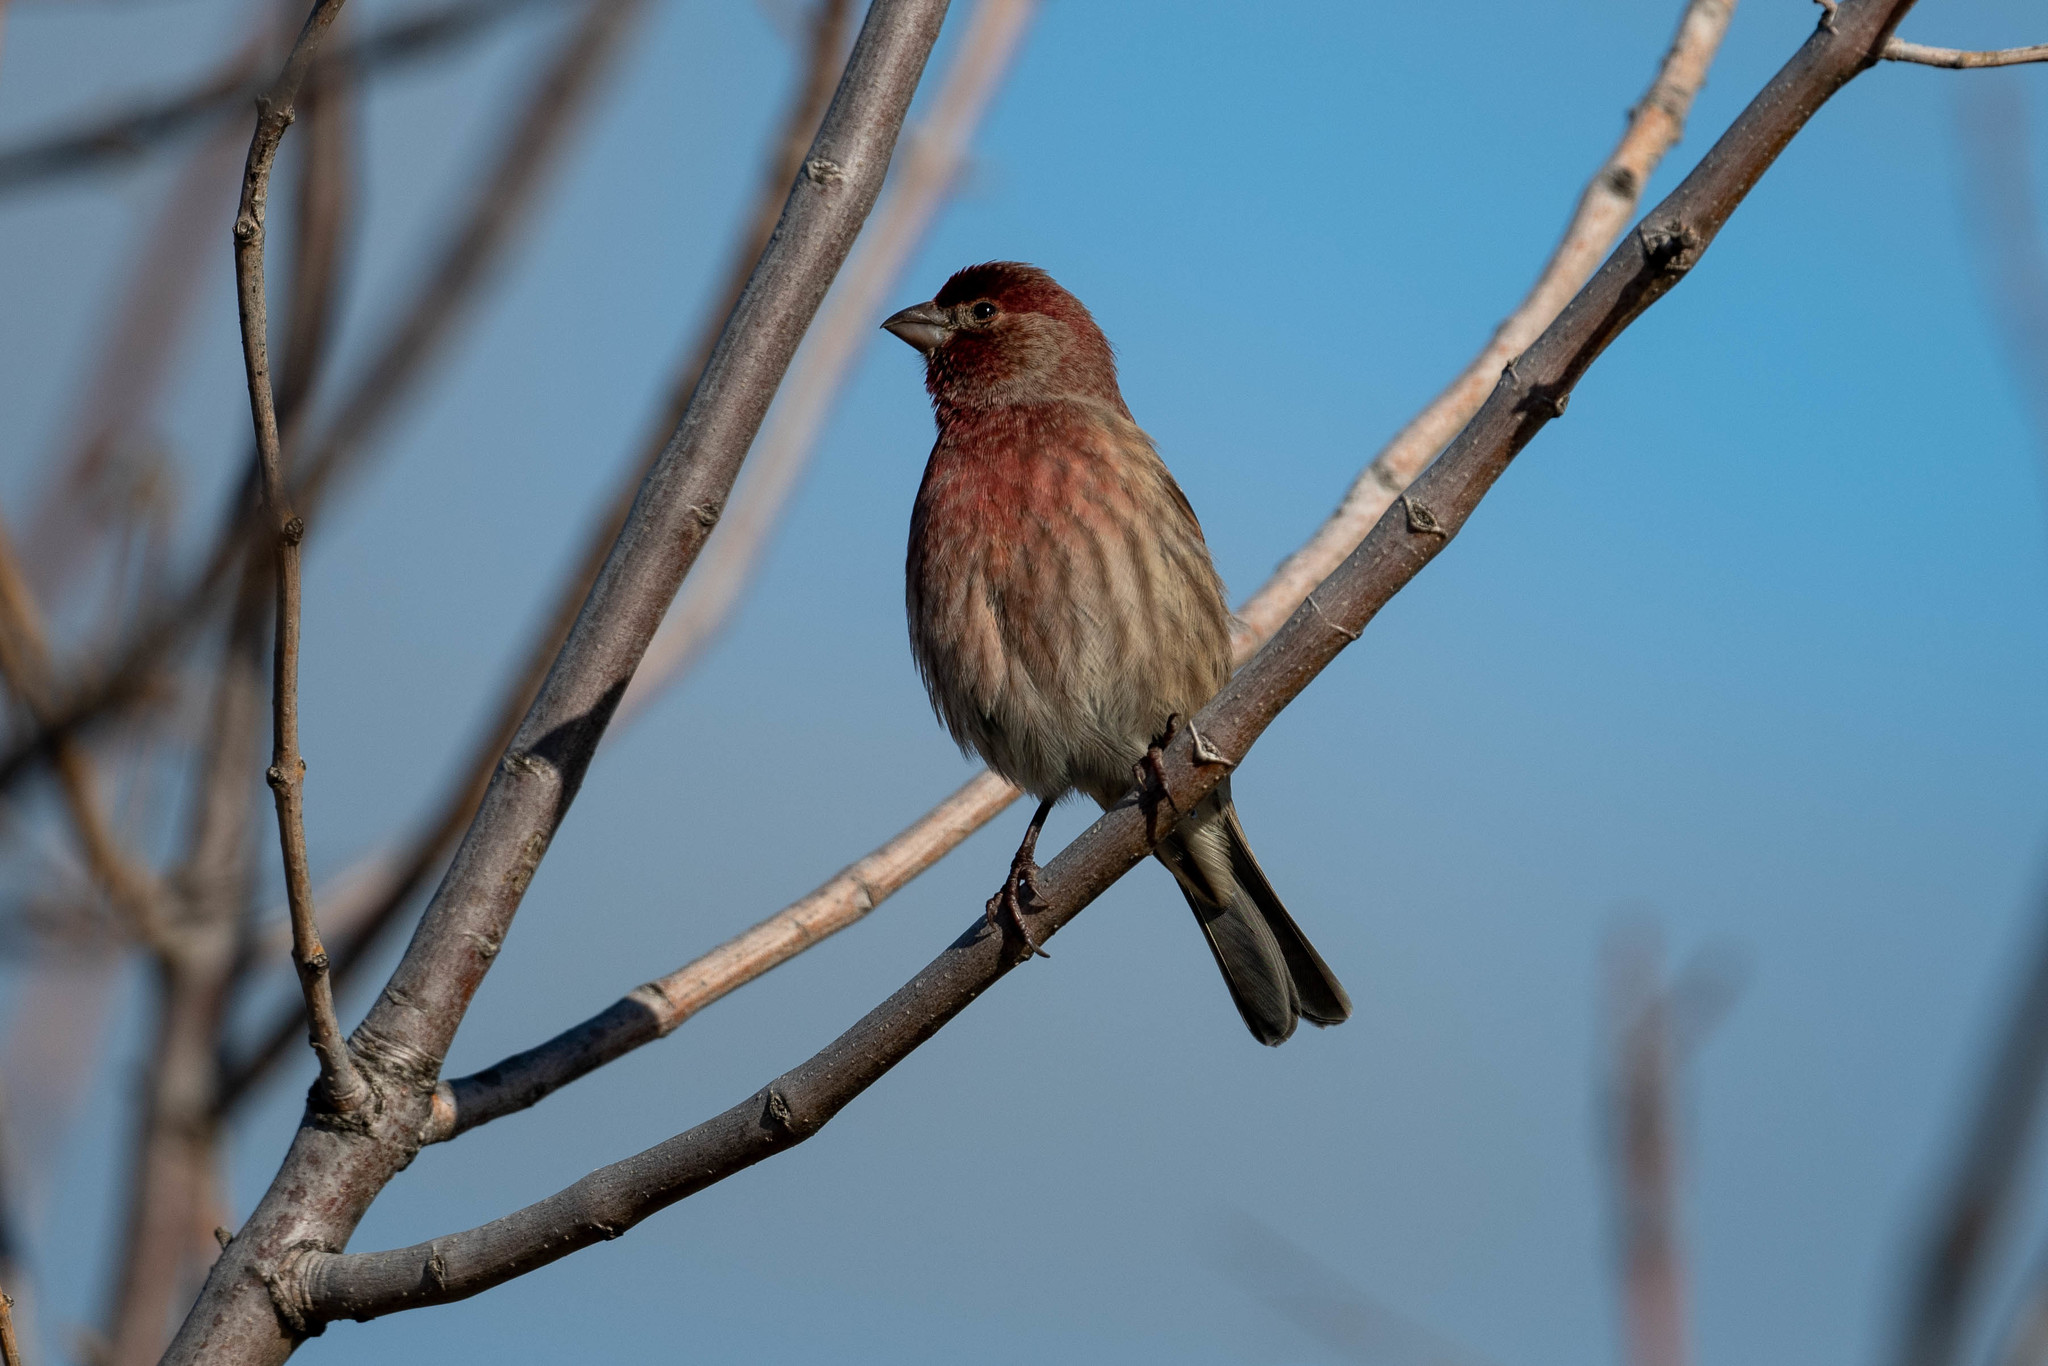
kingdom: Animalia
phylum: Chordata
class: Aves
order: Passeriformes
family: Fringillidae
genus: Haemorhous
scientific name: Haemorhous mexicanus
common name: House finch
